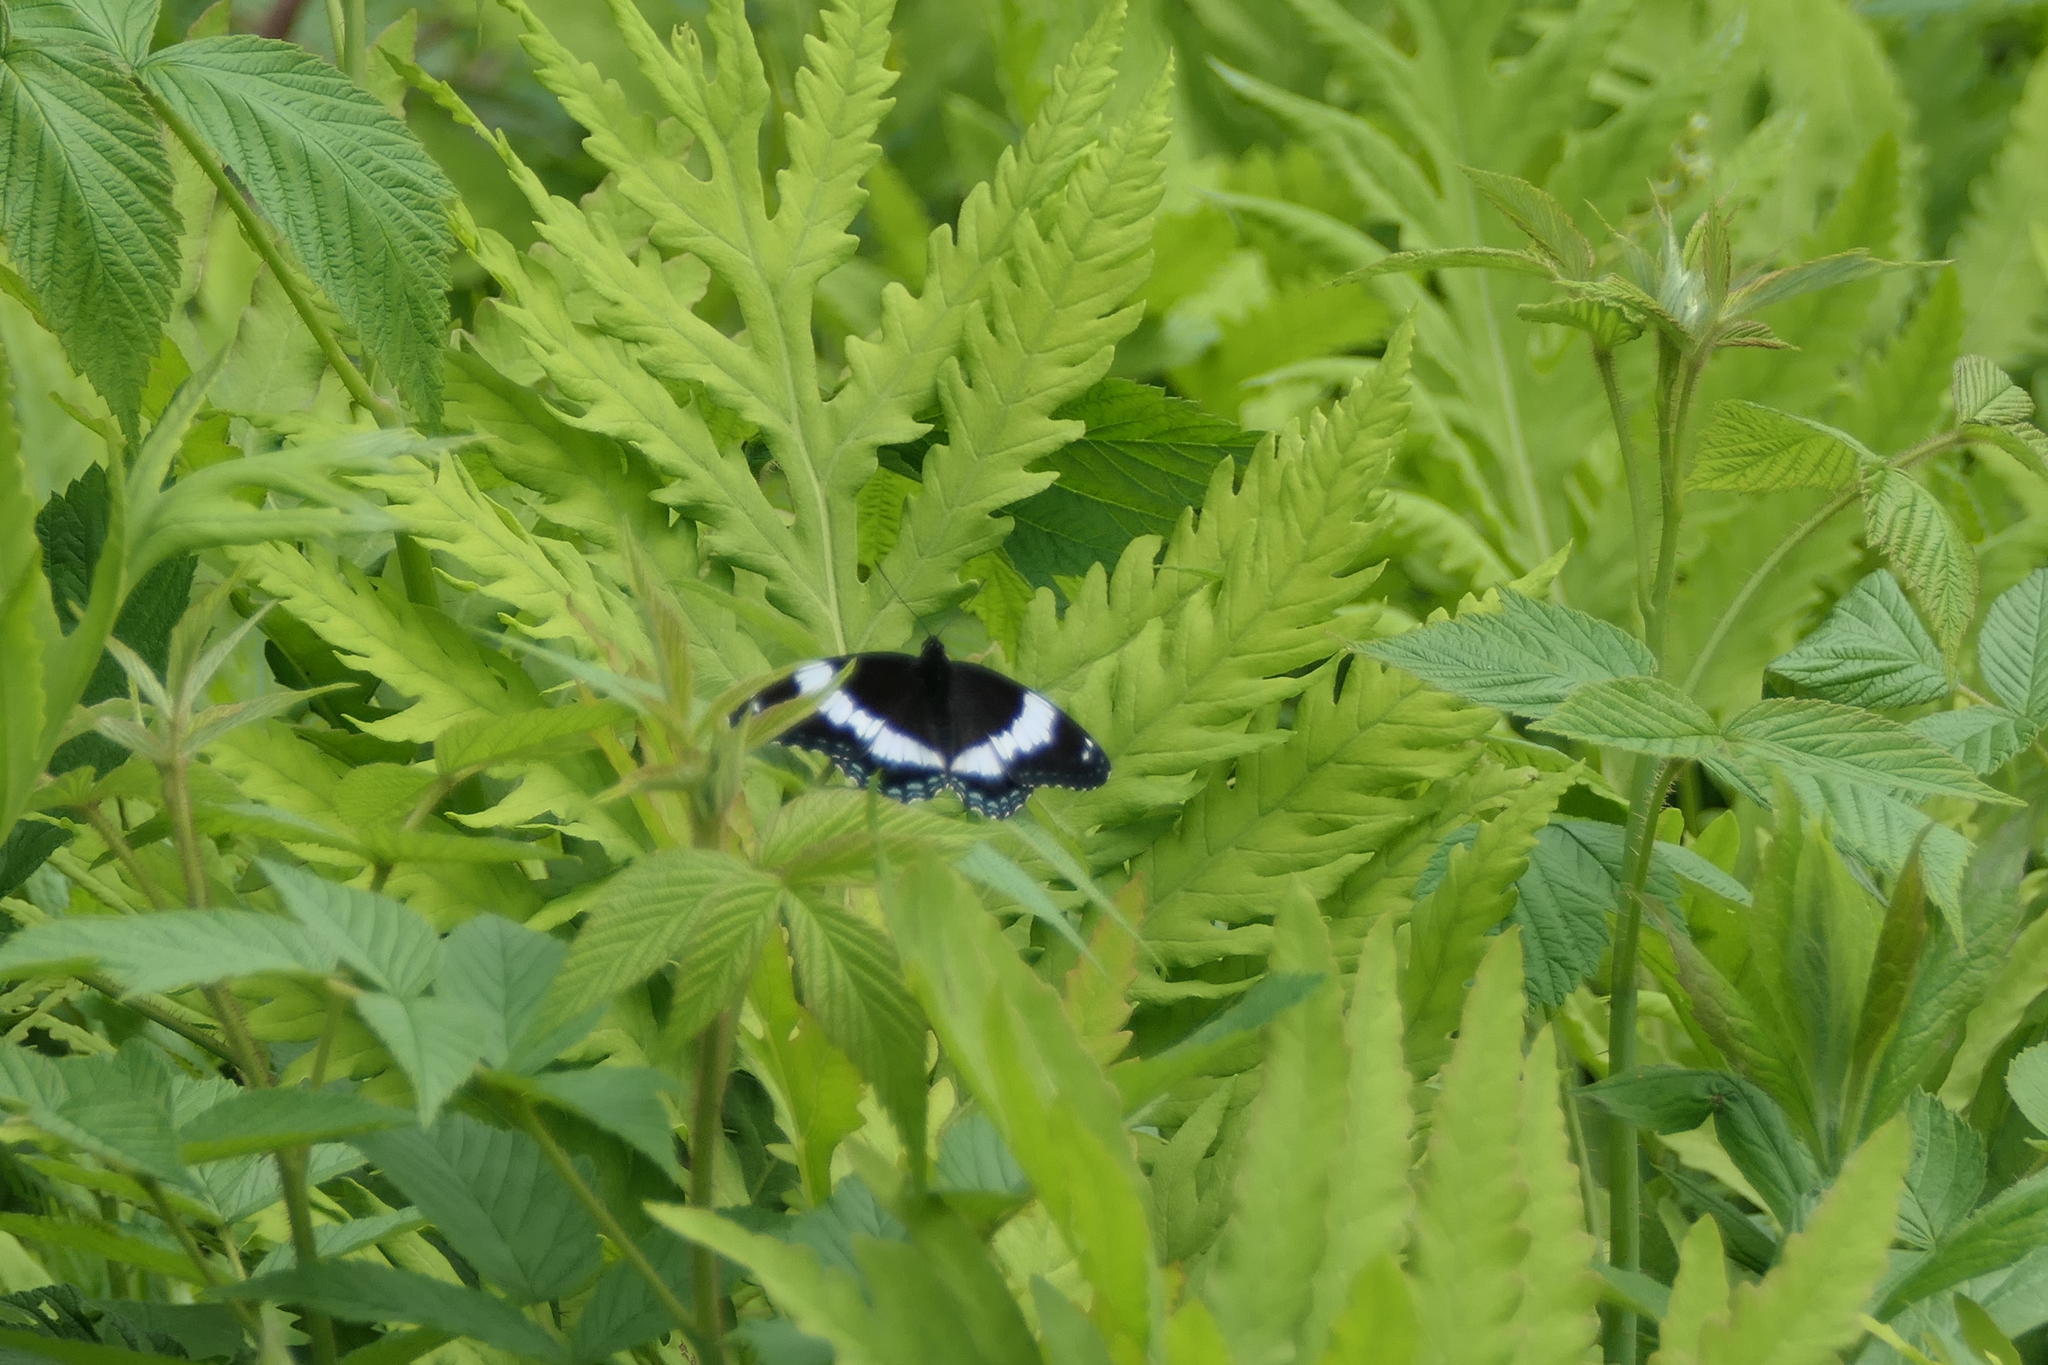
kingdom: Animalia
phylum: Arthropoda
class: Insecta
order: Lepidoptera
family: Nymphalidae
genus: Limenitis
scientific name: Limenitis arthemis
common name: Red-spotted admiral
